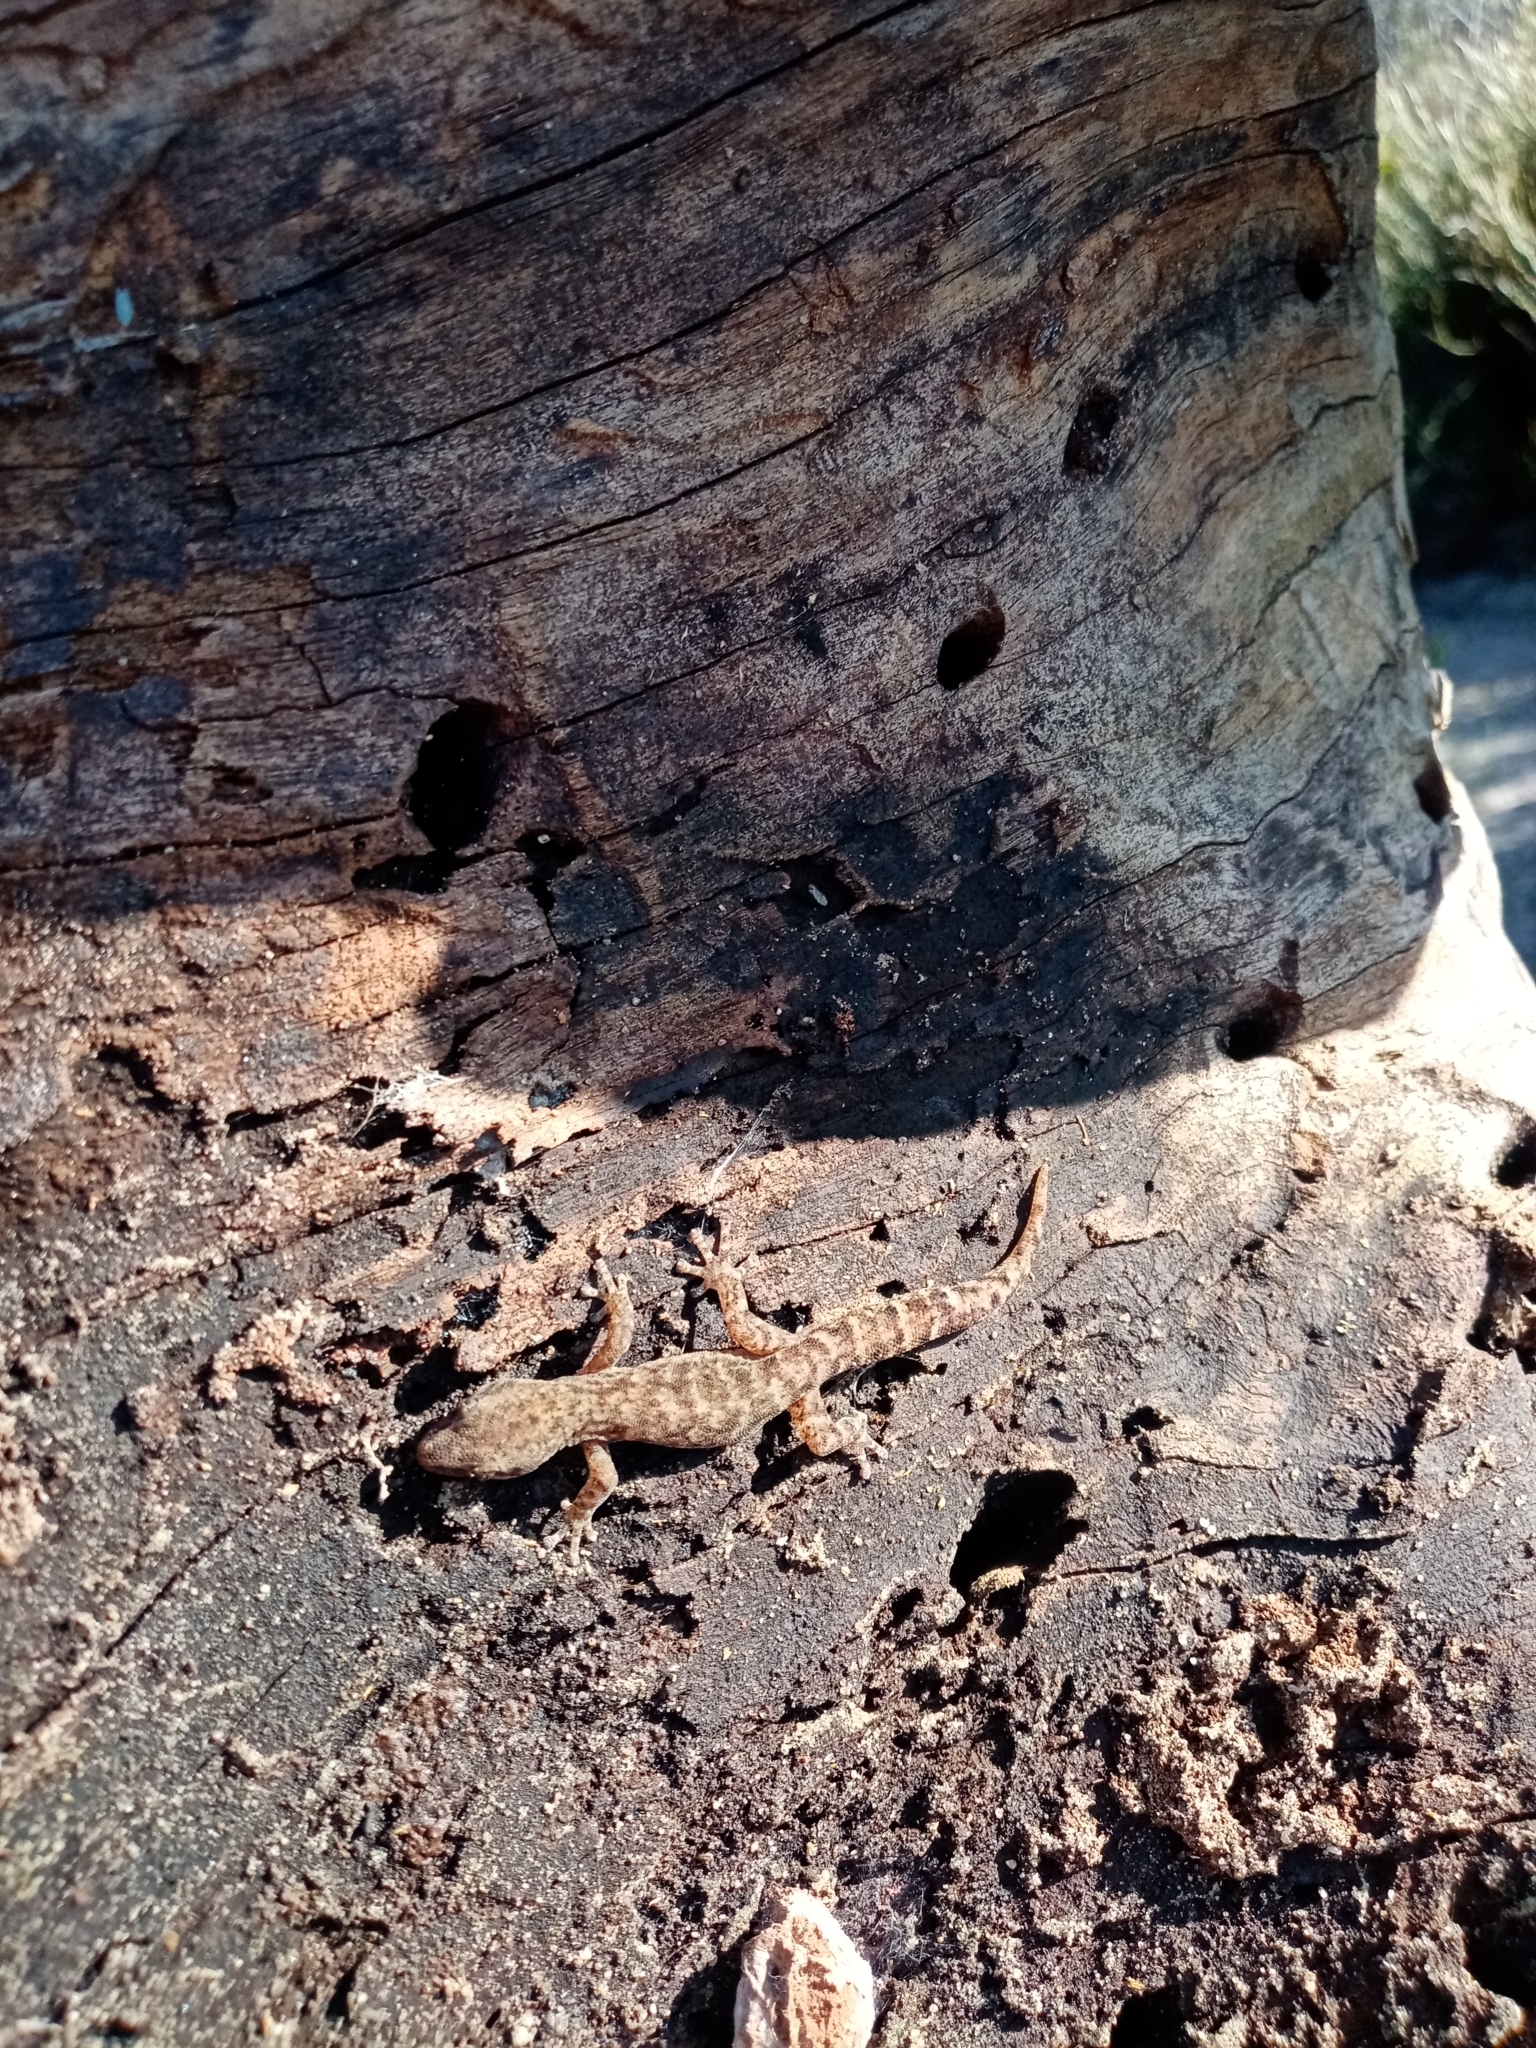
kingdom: Animalia
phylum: Chordata
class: Squamata
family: Gekkonidae
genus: Afrogecko
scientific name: Afrogecko porphyreus
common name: Marbled leaf-toed gecko
